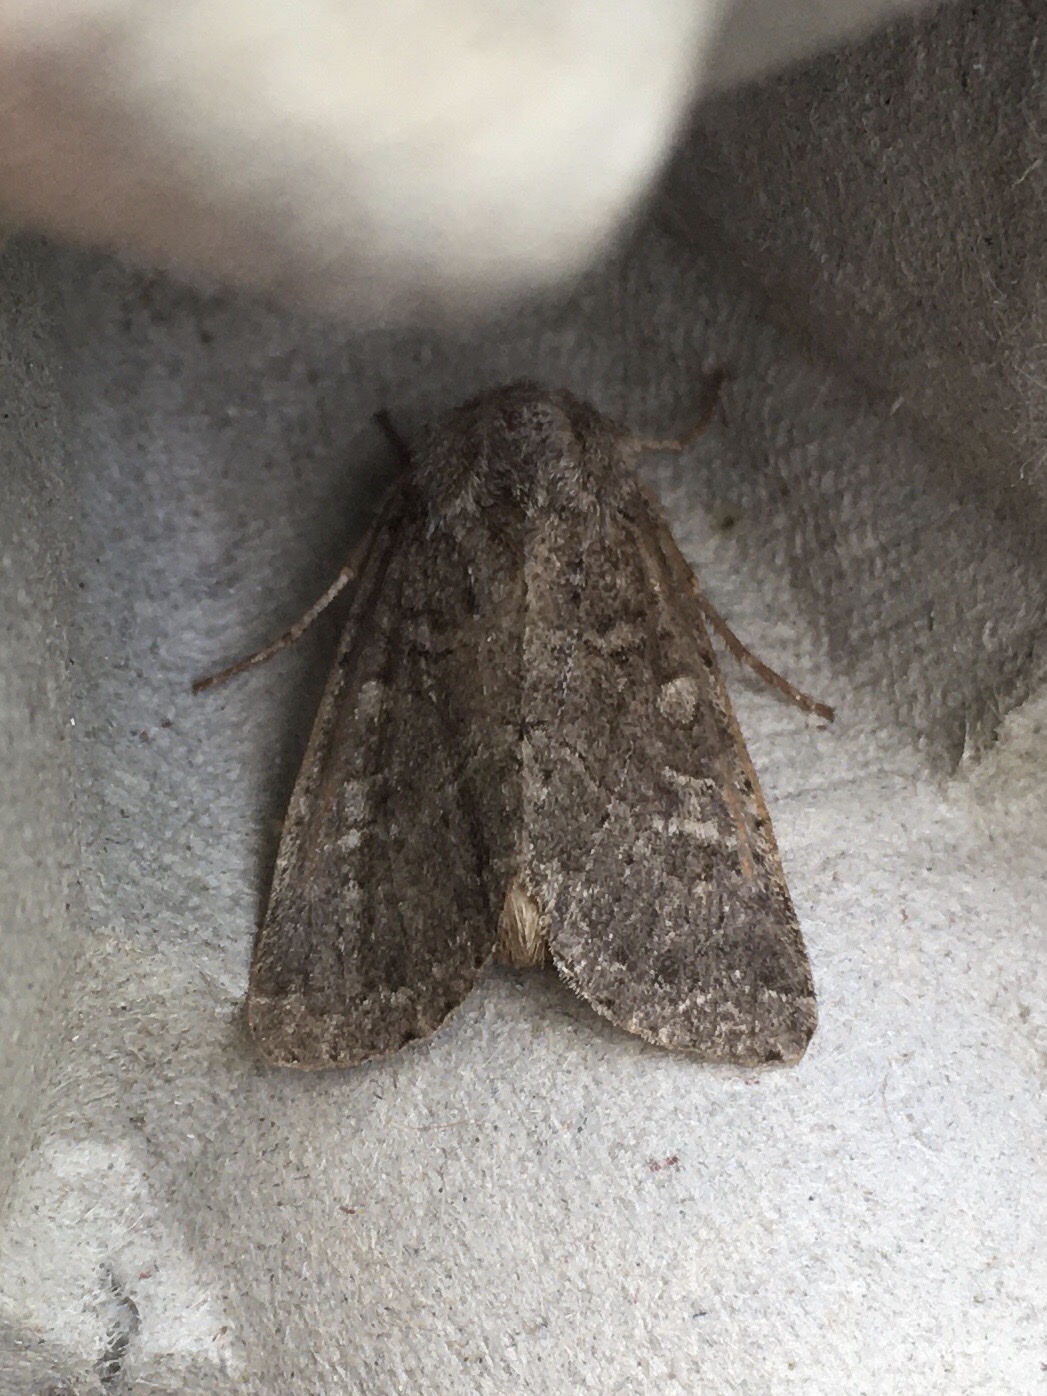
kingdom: Animalia
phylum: Arthropoda
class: Insecta
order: Lepidoptera
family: Noctuidae
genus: Apamea
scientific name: Apamea devastator
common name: Glassy cutworm
